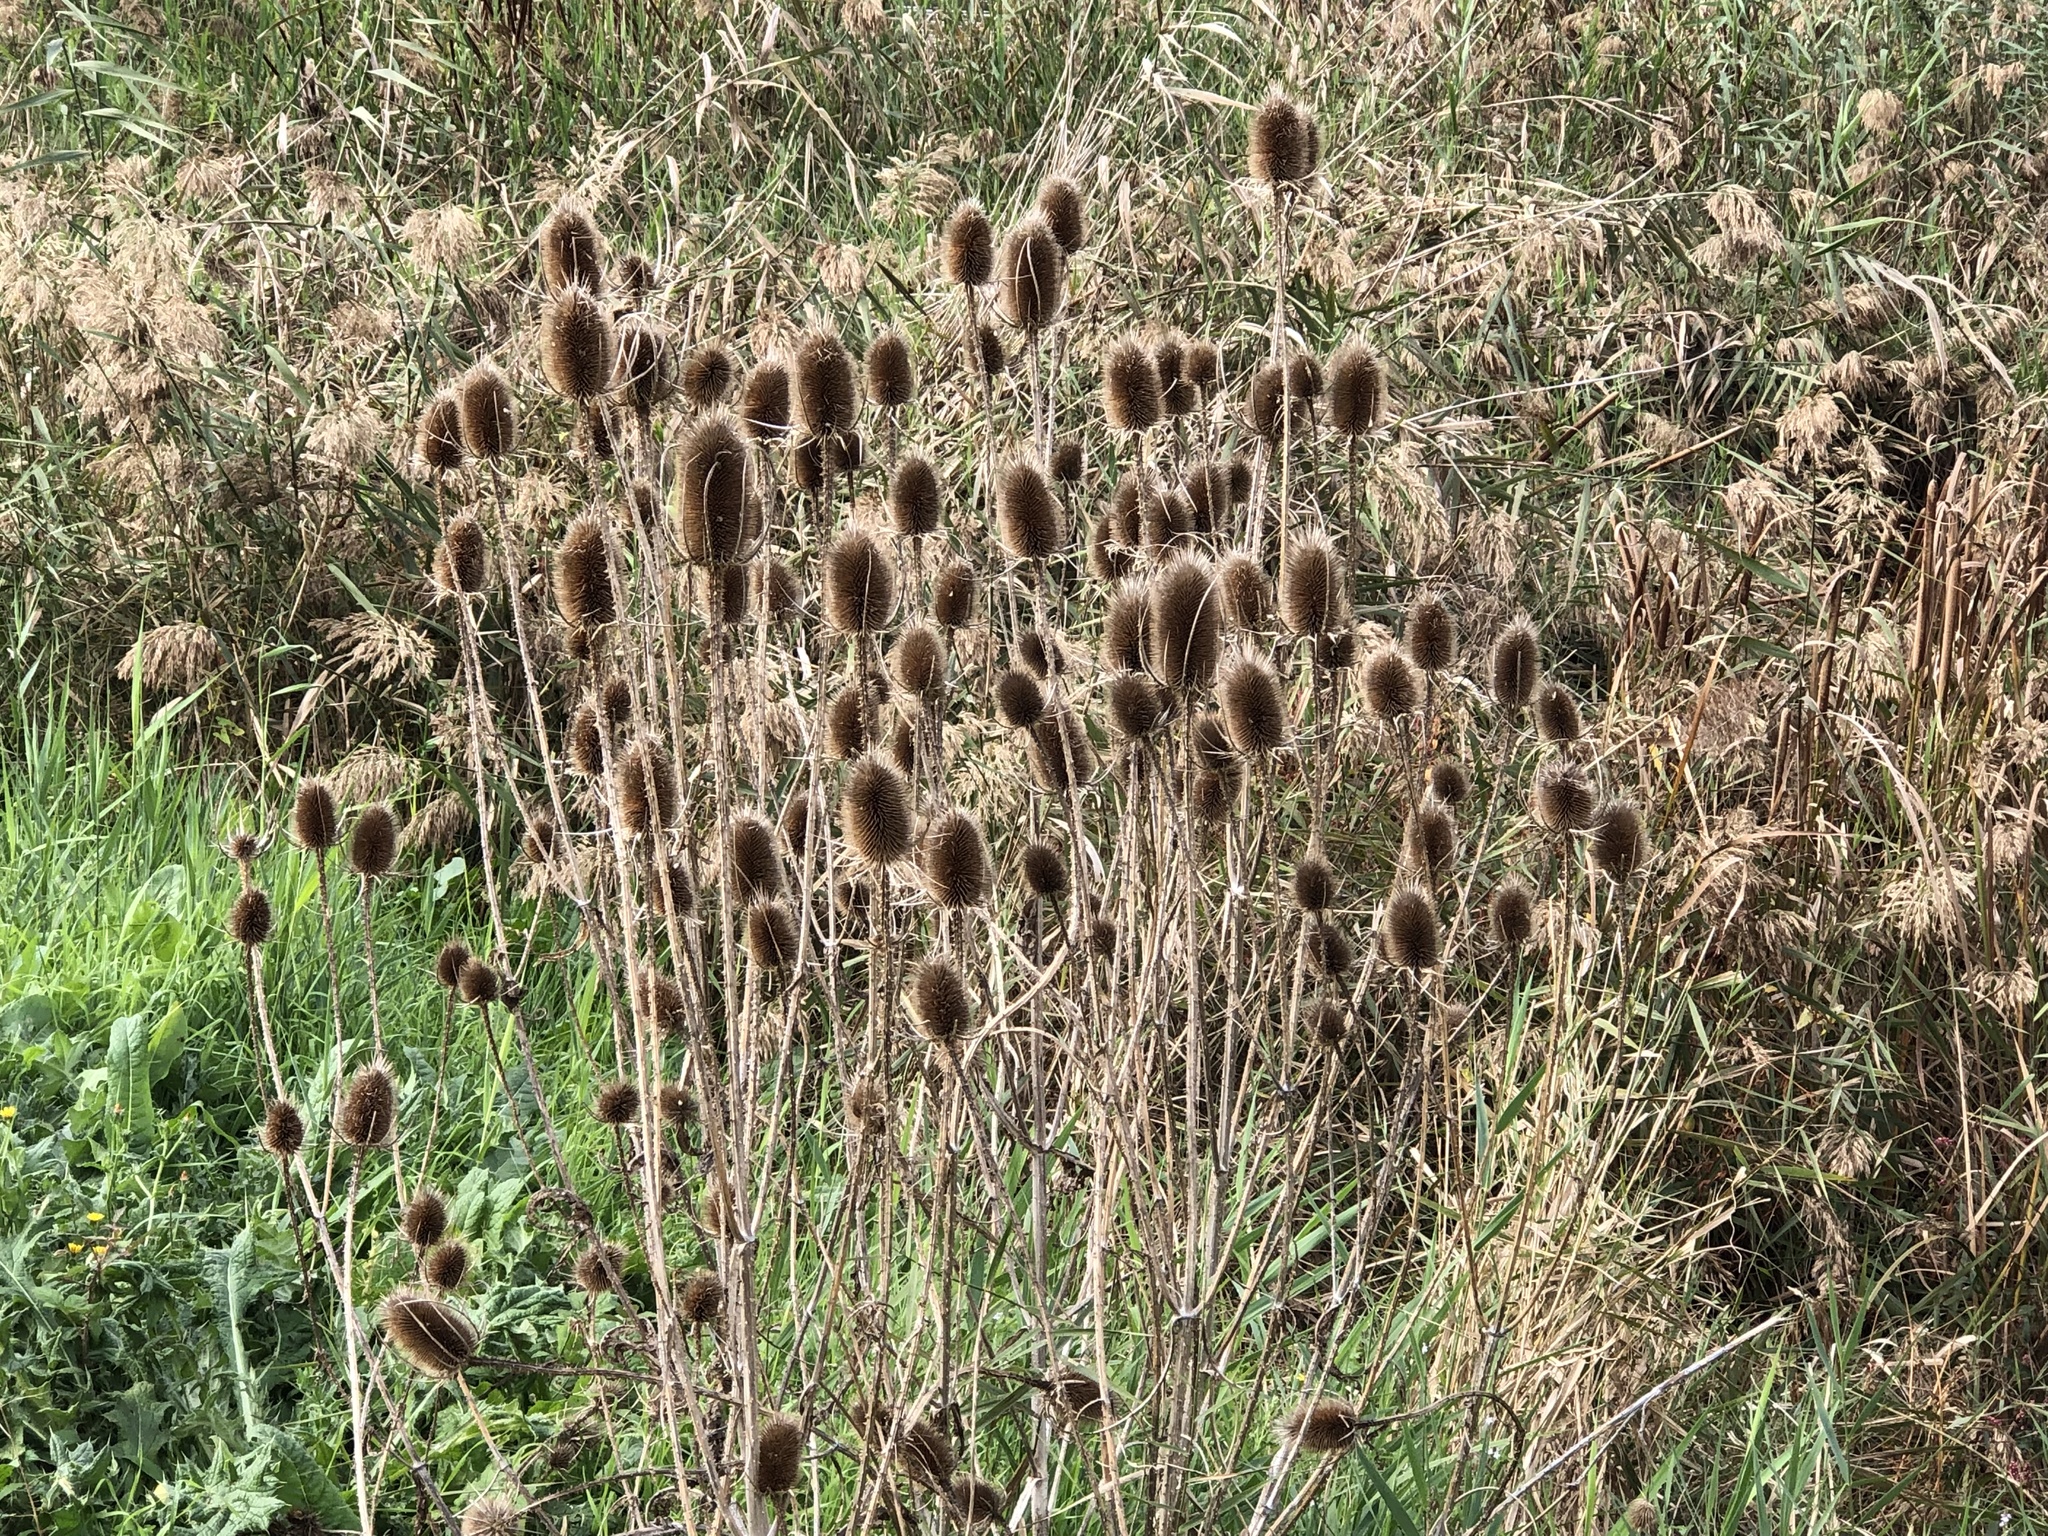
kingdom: Plantae
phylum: Tracheophyta
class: Magnoliopsida
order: Dipsacales
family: Caprifoliaceae
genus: Dipsacus
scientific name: Dipsacus fullonum
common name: Teasel
